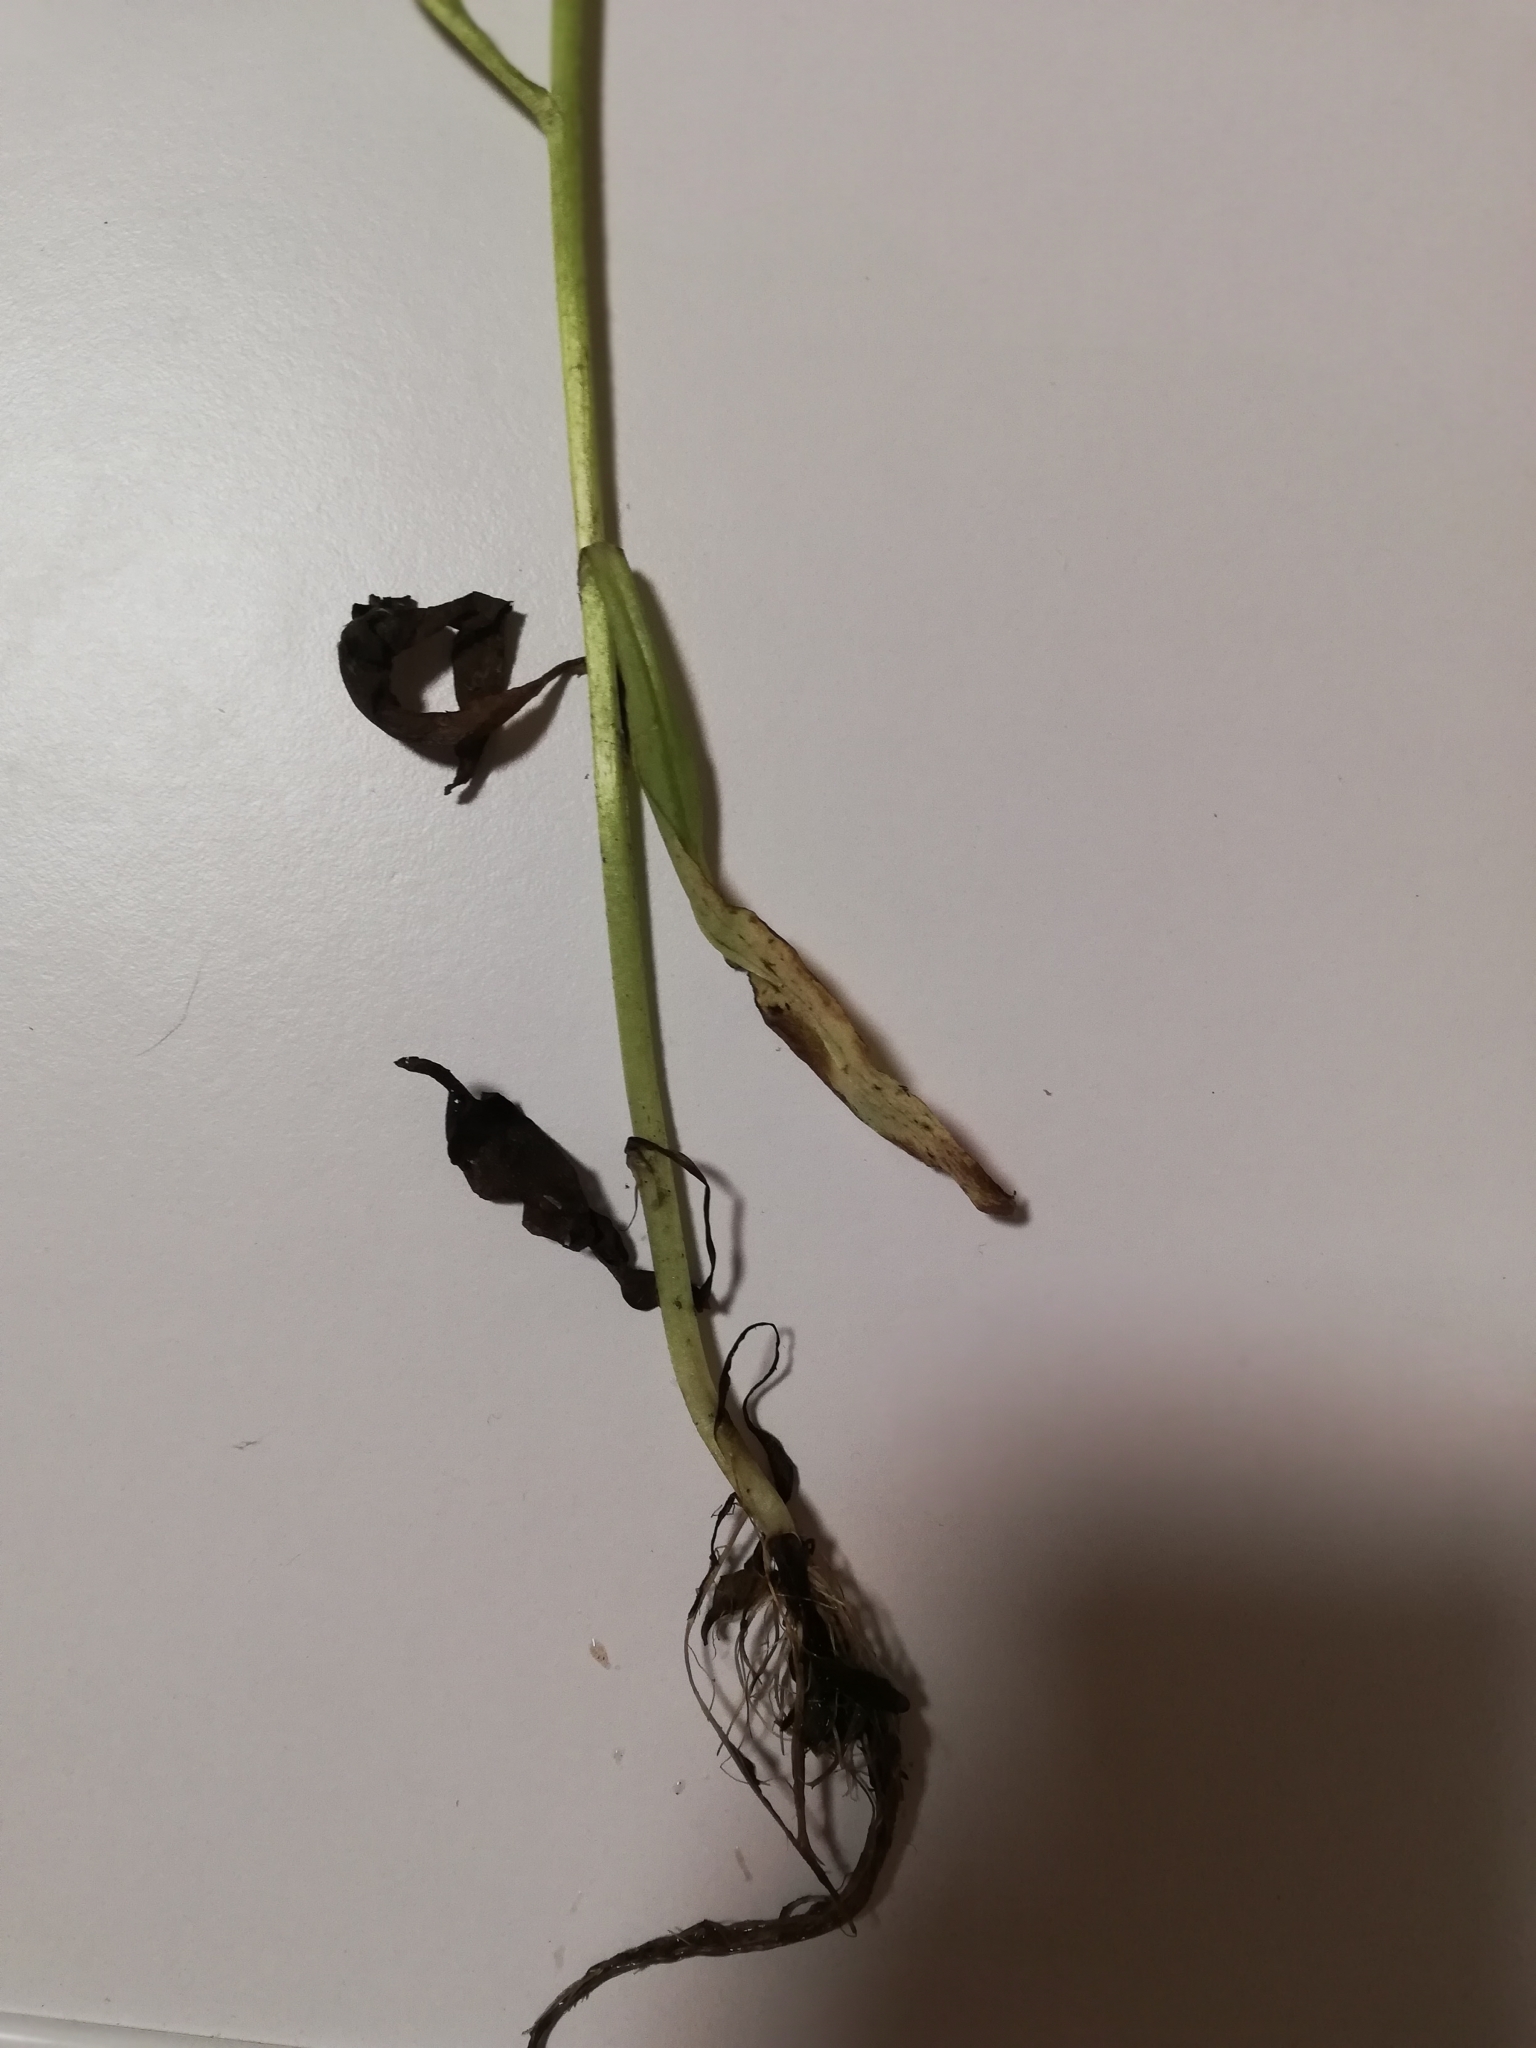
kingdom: Plantae
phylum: Tracheophyta
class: Magnoliopsida
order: Boraginales
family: Boraginaceae
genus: Myosotis
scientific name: Myosotis scorpioides
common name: Water forget-me-not
